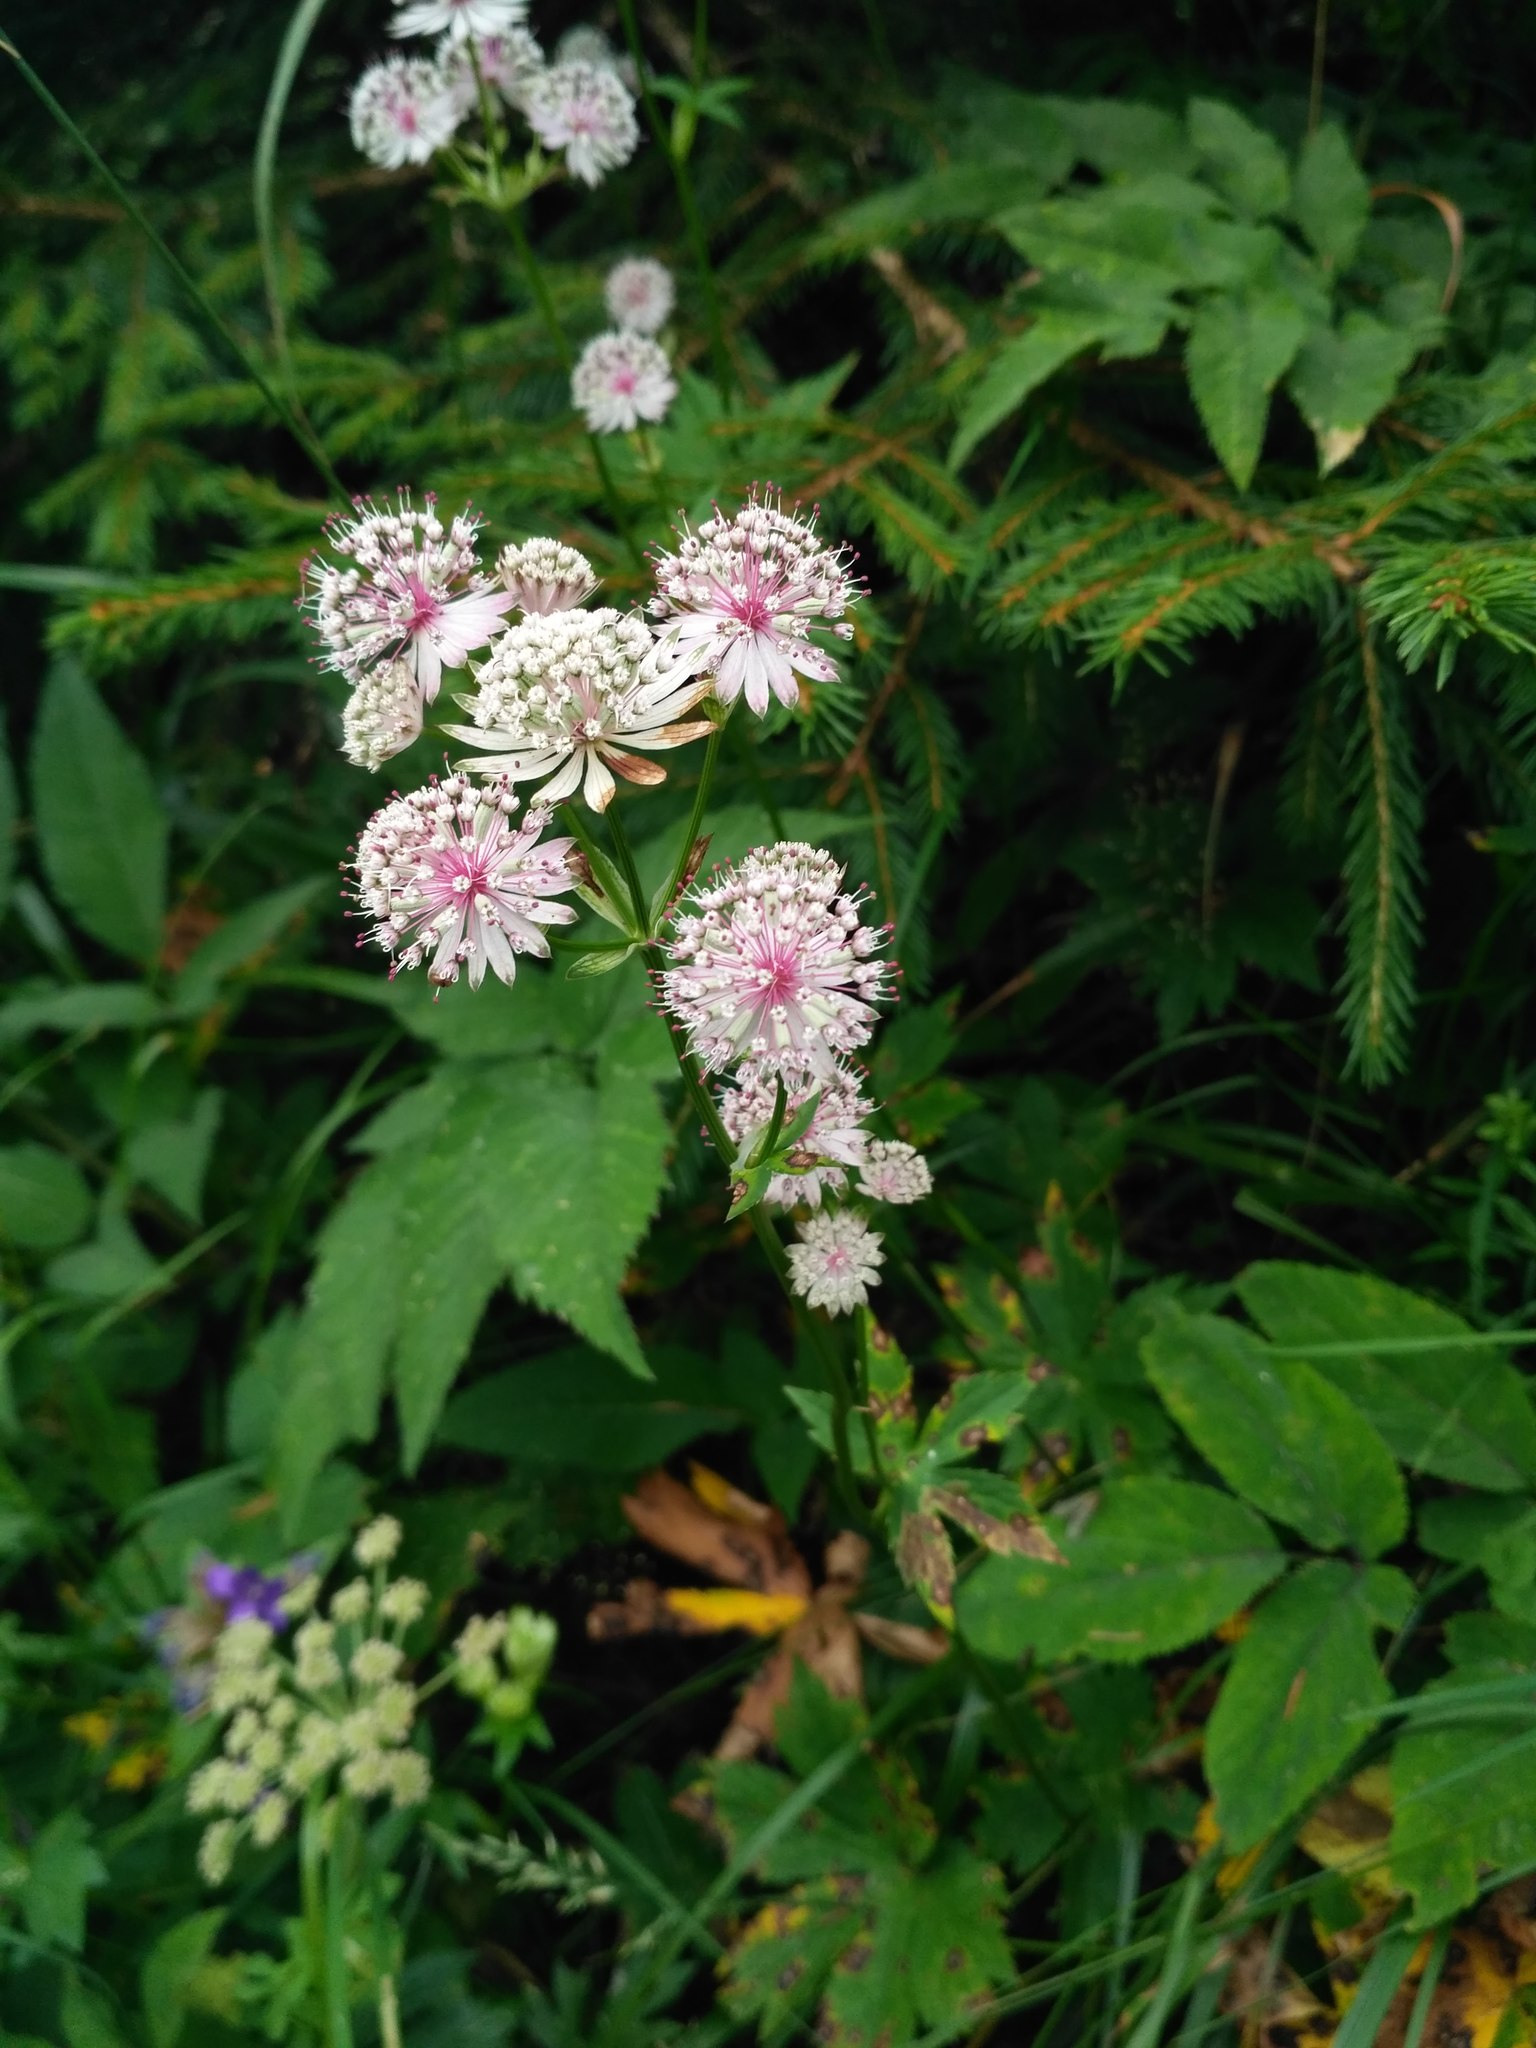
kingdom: Plantae
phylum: Tracheophyta
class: Magnoliopsida
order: Apiales
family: Apiaceae
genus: Astrantia
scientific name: Astrantia major
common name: Greater masterwort
